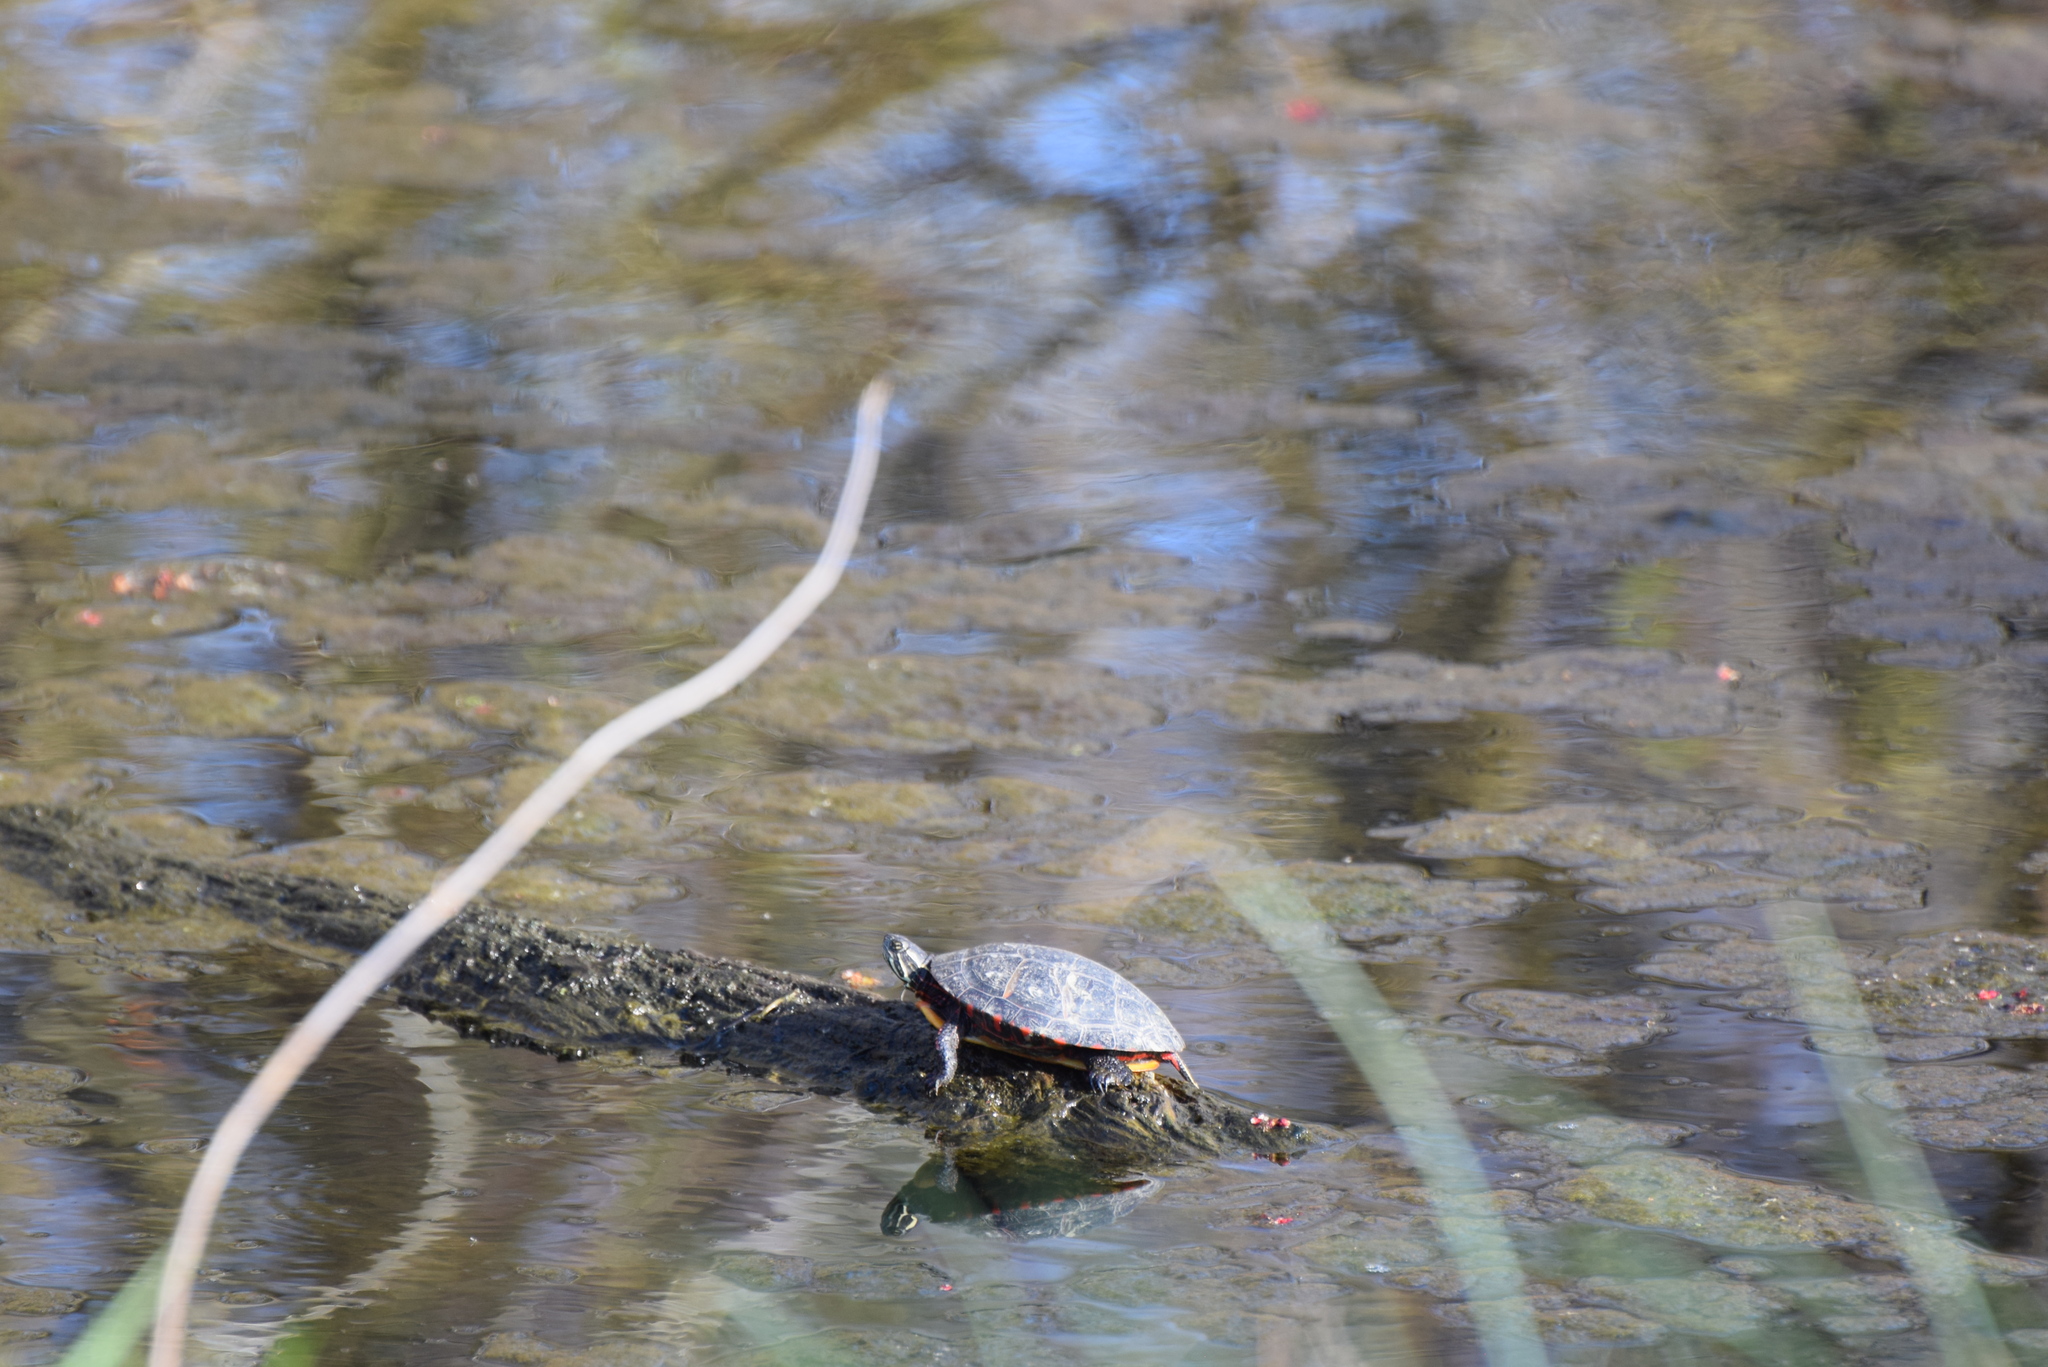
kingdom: Animalia
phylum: Chordata
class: Testudines
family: Emydidae
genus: Chrysemys
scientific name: Chrysemys picta
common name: Painted turtle
